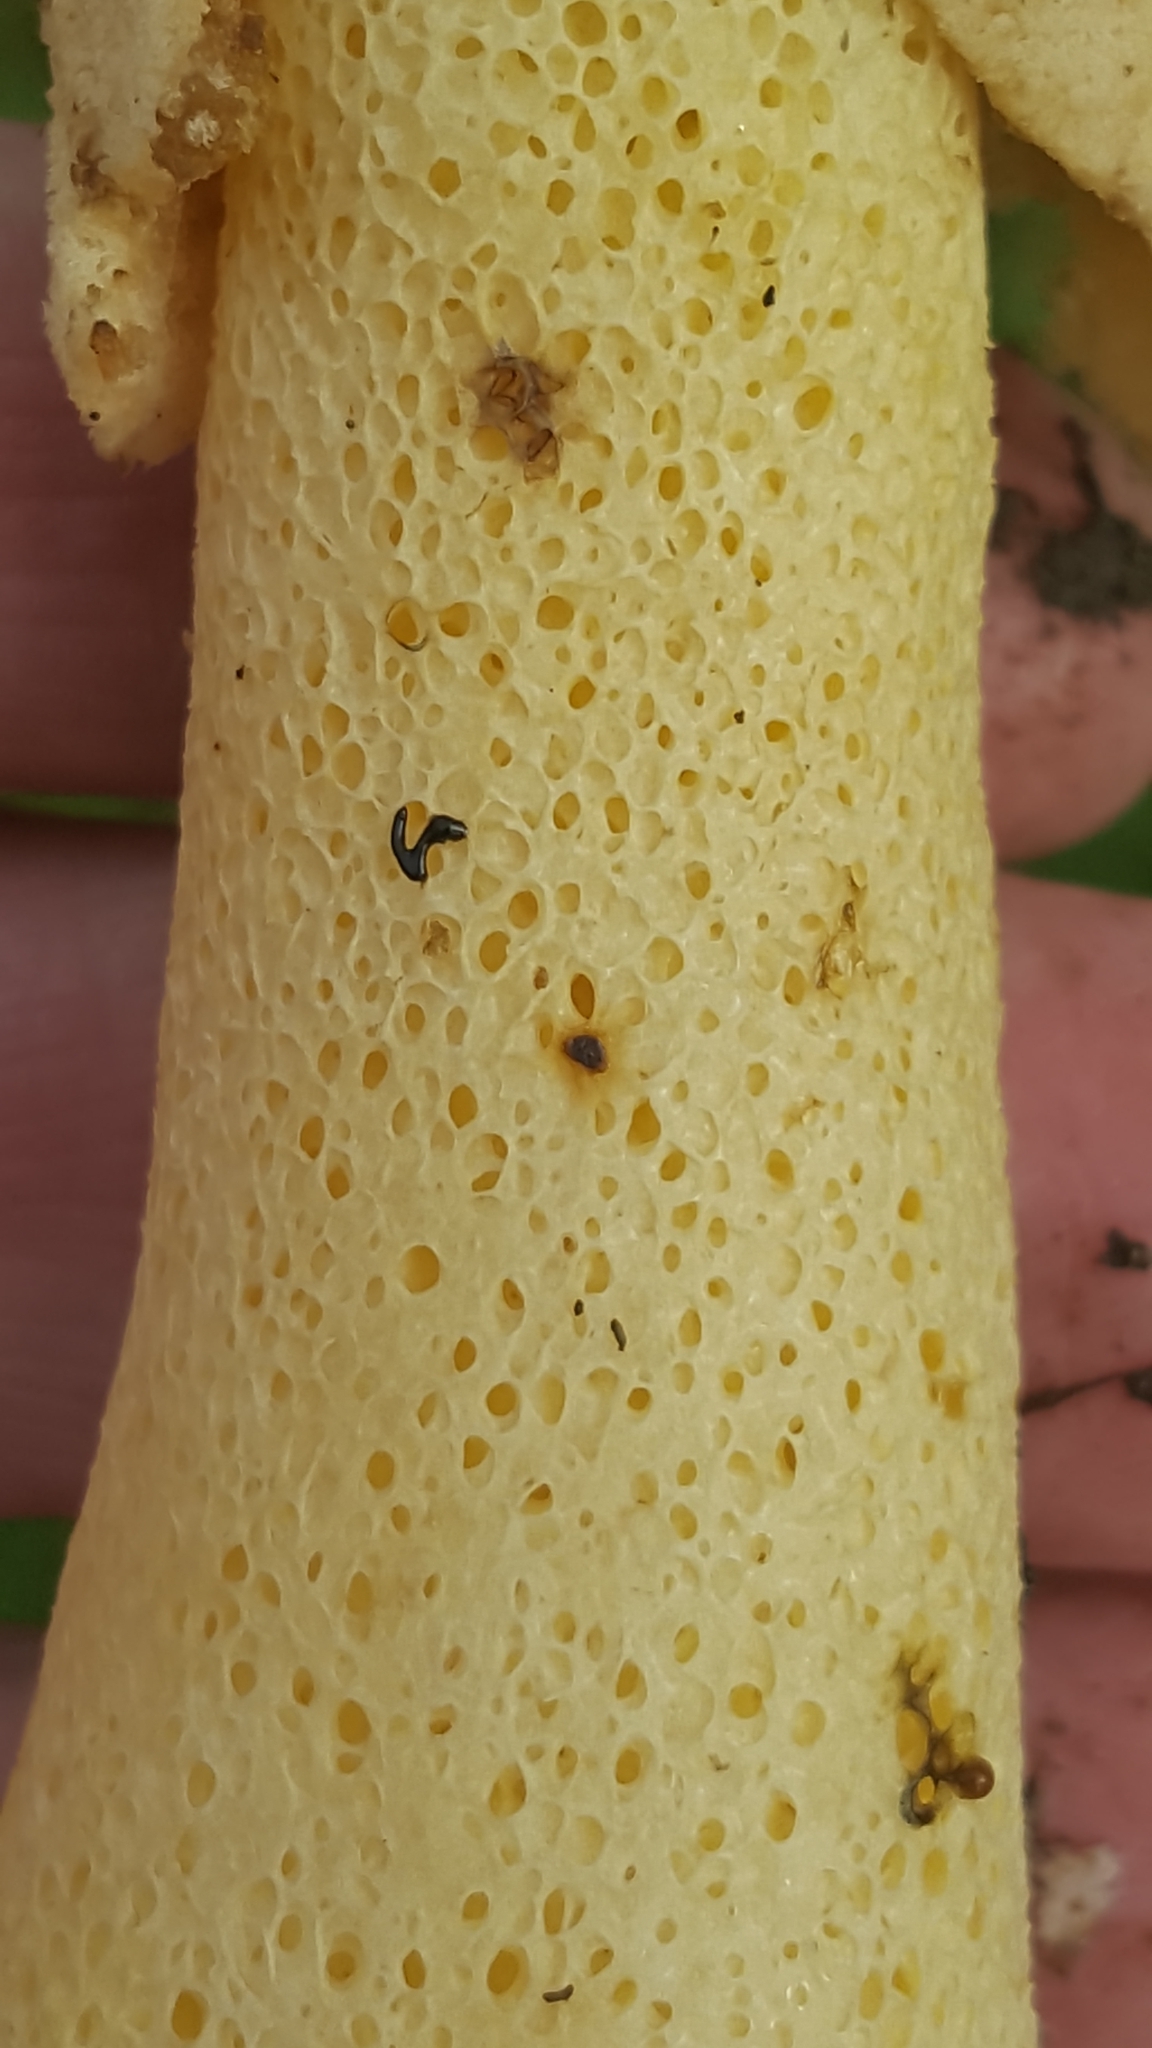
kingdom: Fungi
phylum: Basidiomycota
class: Agaricomycetes
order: Phallales
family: Phallaceae
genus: Phallus
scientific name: Phallus ravenelii
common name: Ravenel's stinkhorn
